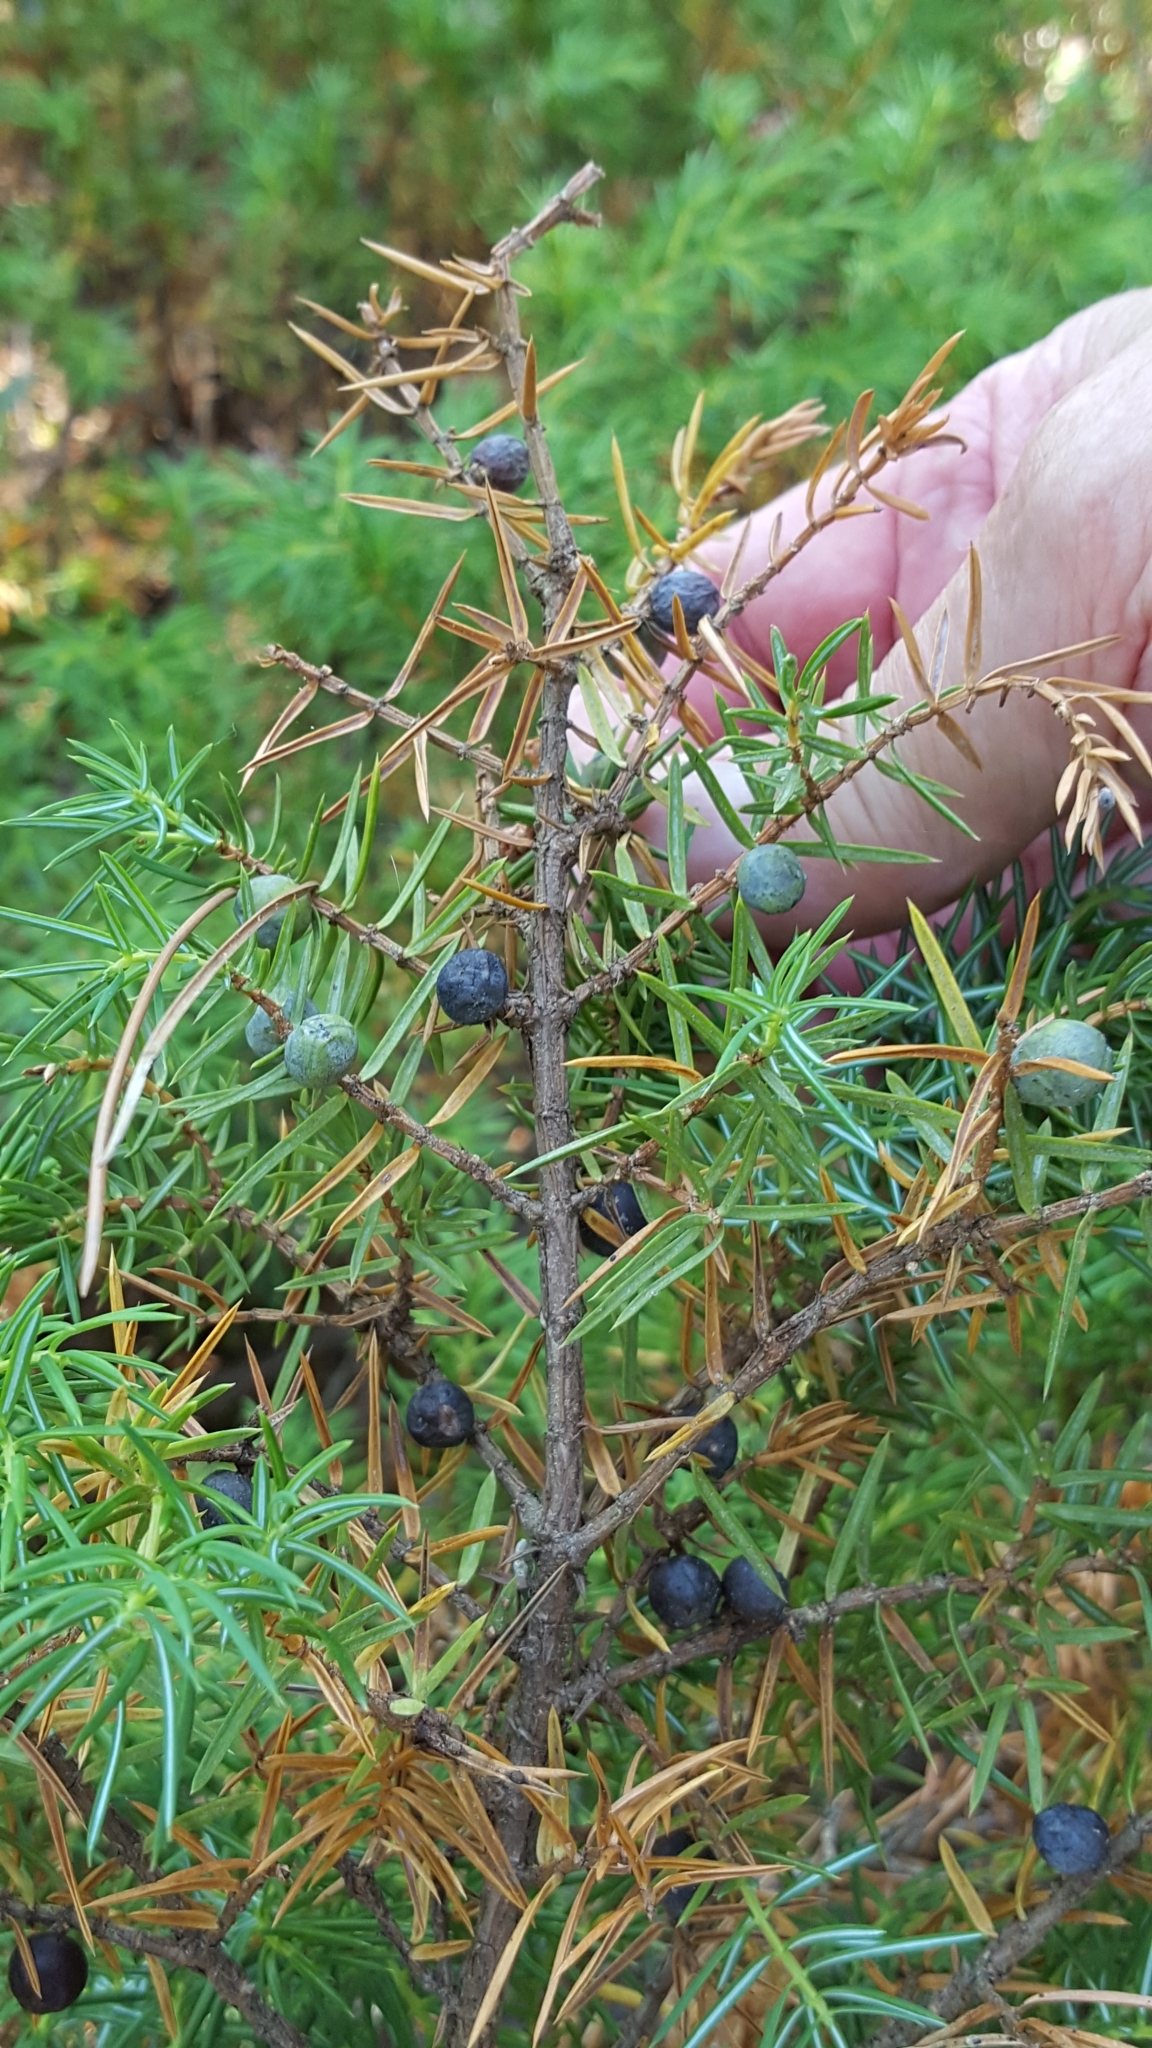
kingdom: Plantae
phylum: Tracheophyta
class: Pinopsida
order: Pinales
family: Cupressaceae
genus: Juniperus
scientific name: Juniperus communis
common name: Common juniper
